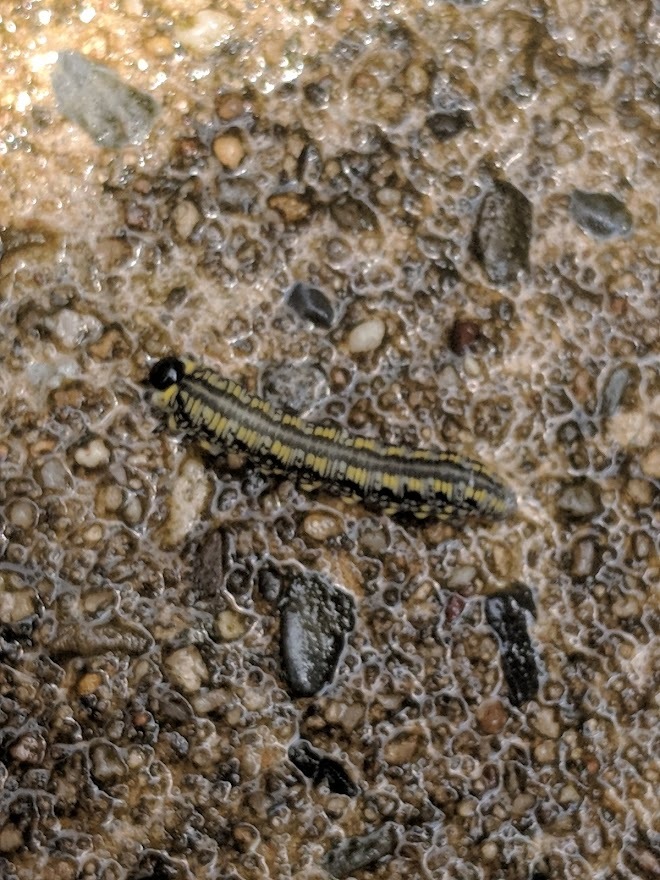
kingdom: Animalia
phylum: Arthropoda
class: Insecta
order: Hymenoptera
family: Diprionidae
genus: Diprion
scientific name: Diprion similis
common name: Pine sawfly
